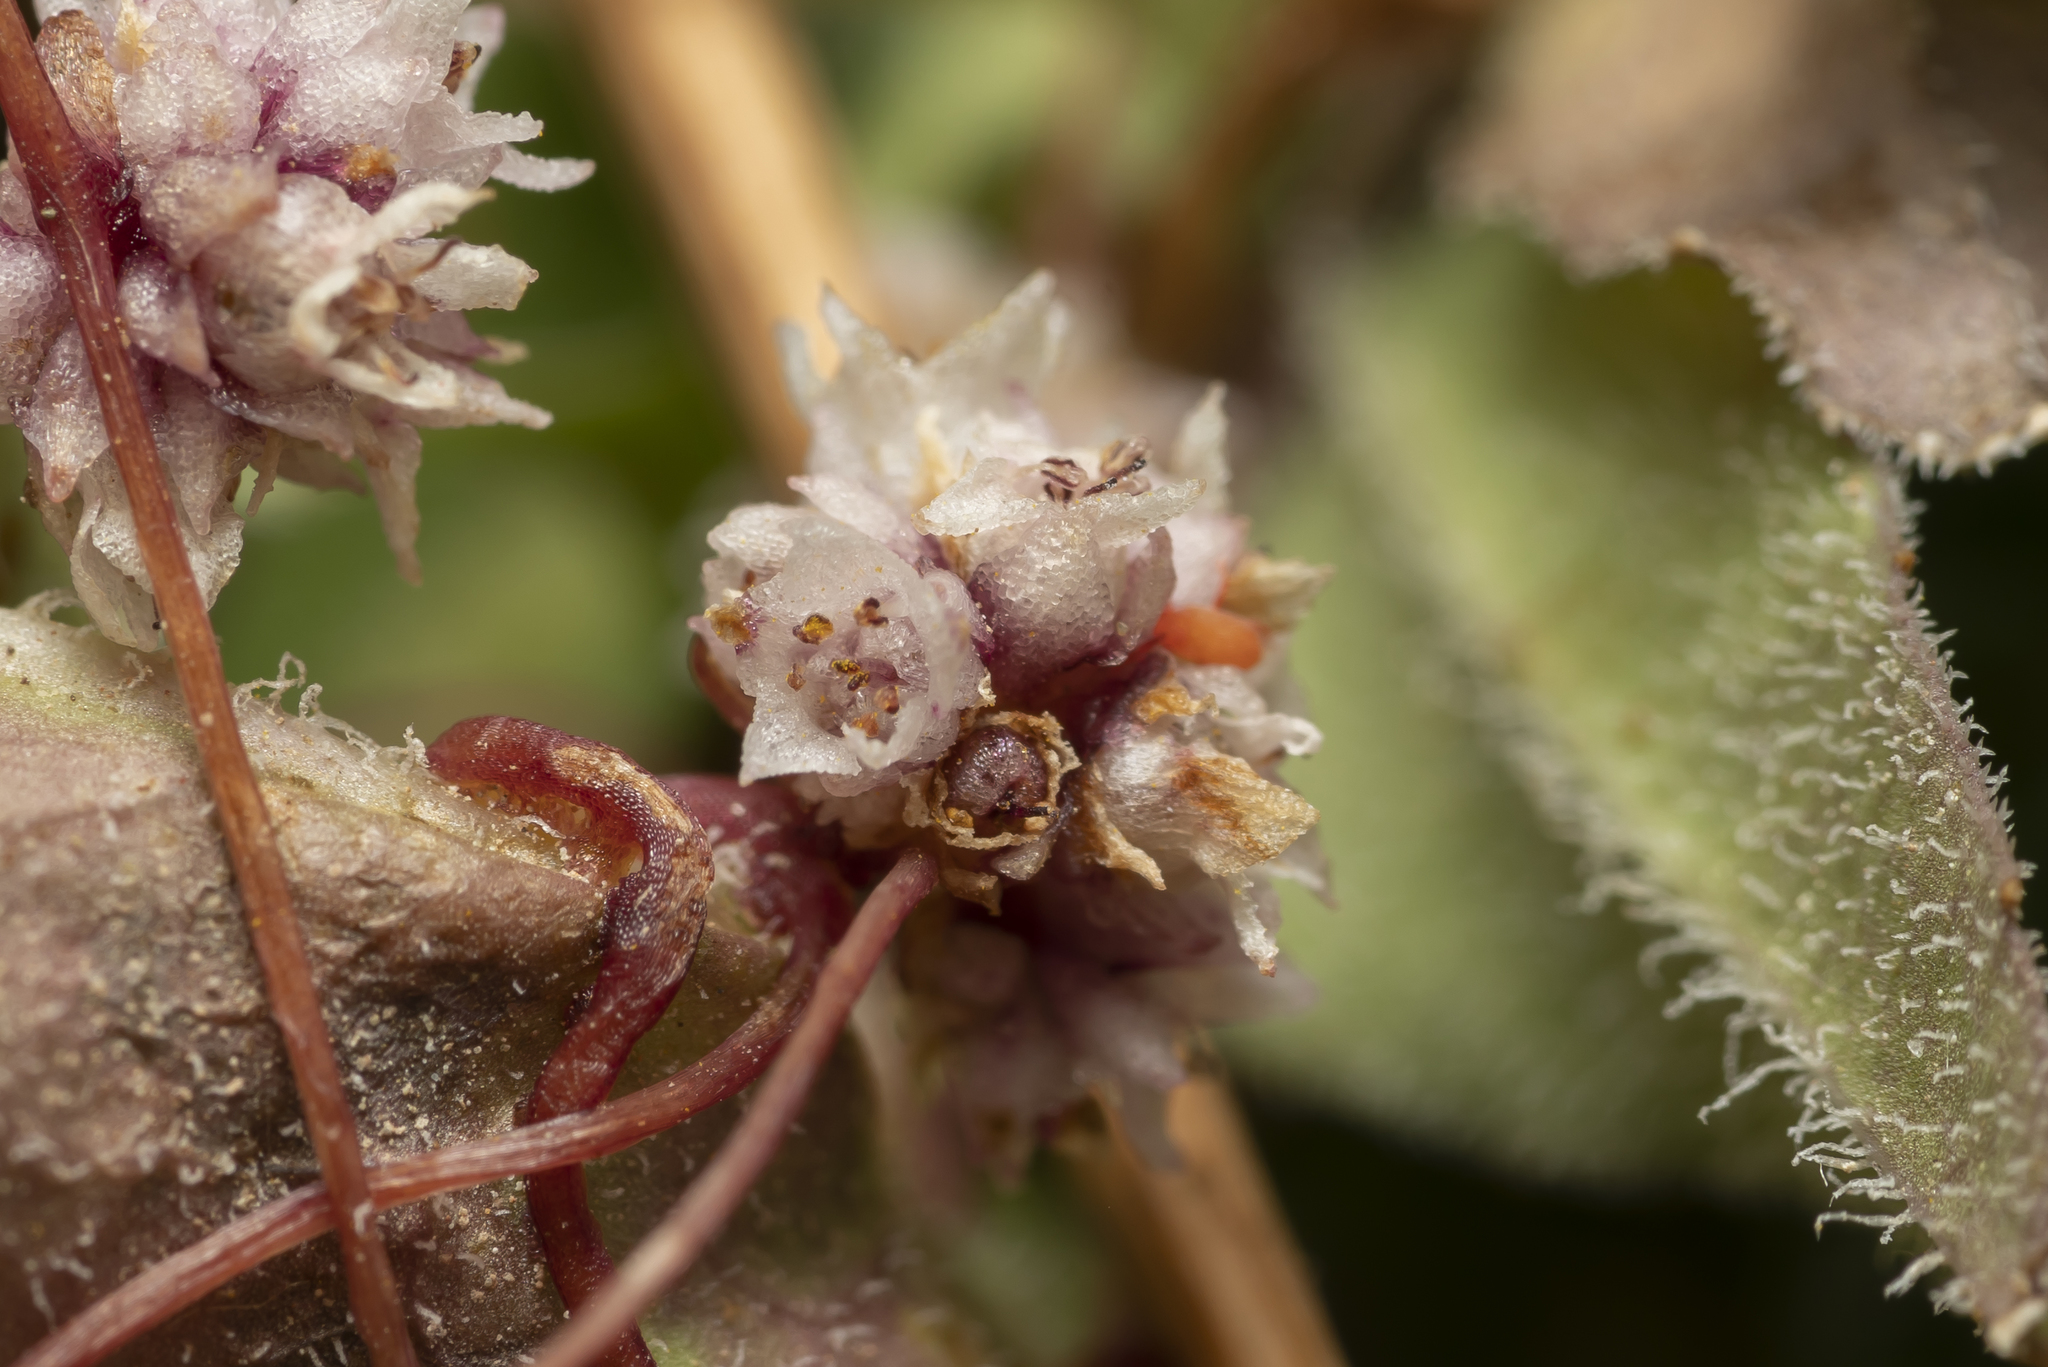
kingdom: Plantae
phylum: Tracheophyta
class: Magnoliopsida
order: Solanales
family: Convolvulaceae
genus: Cuscuta
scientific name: Cuscuta palaestina
